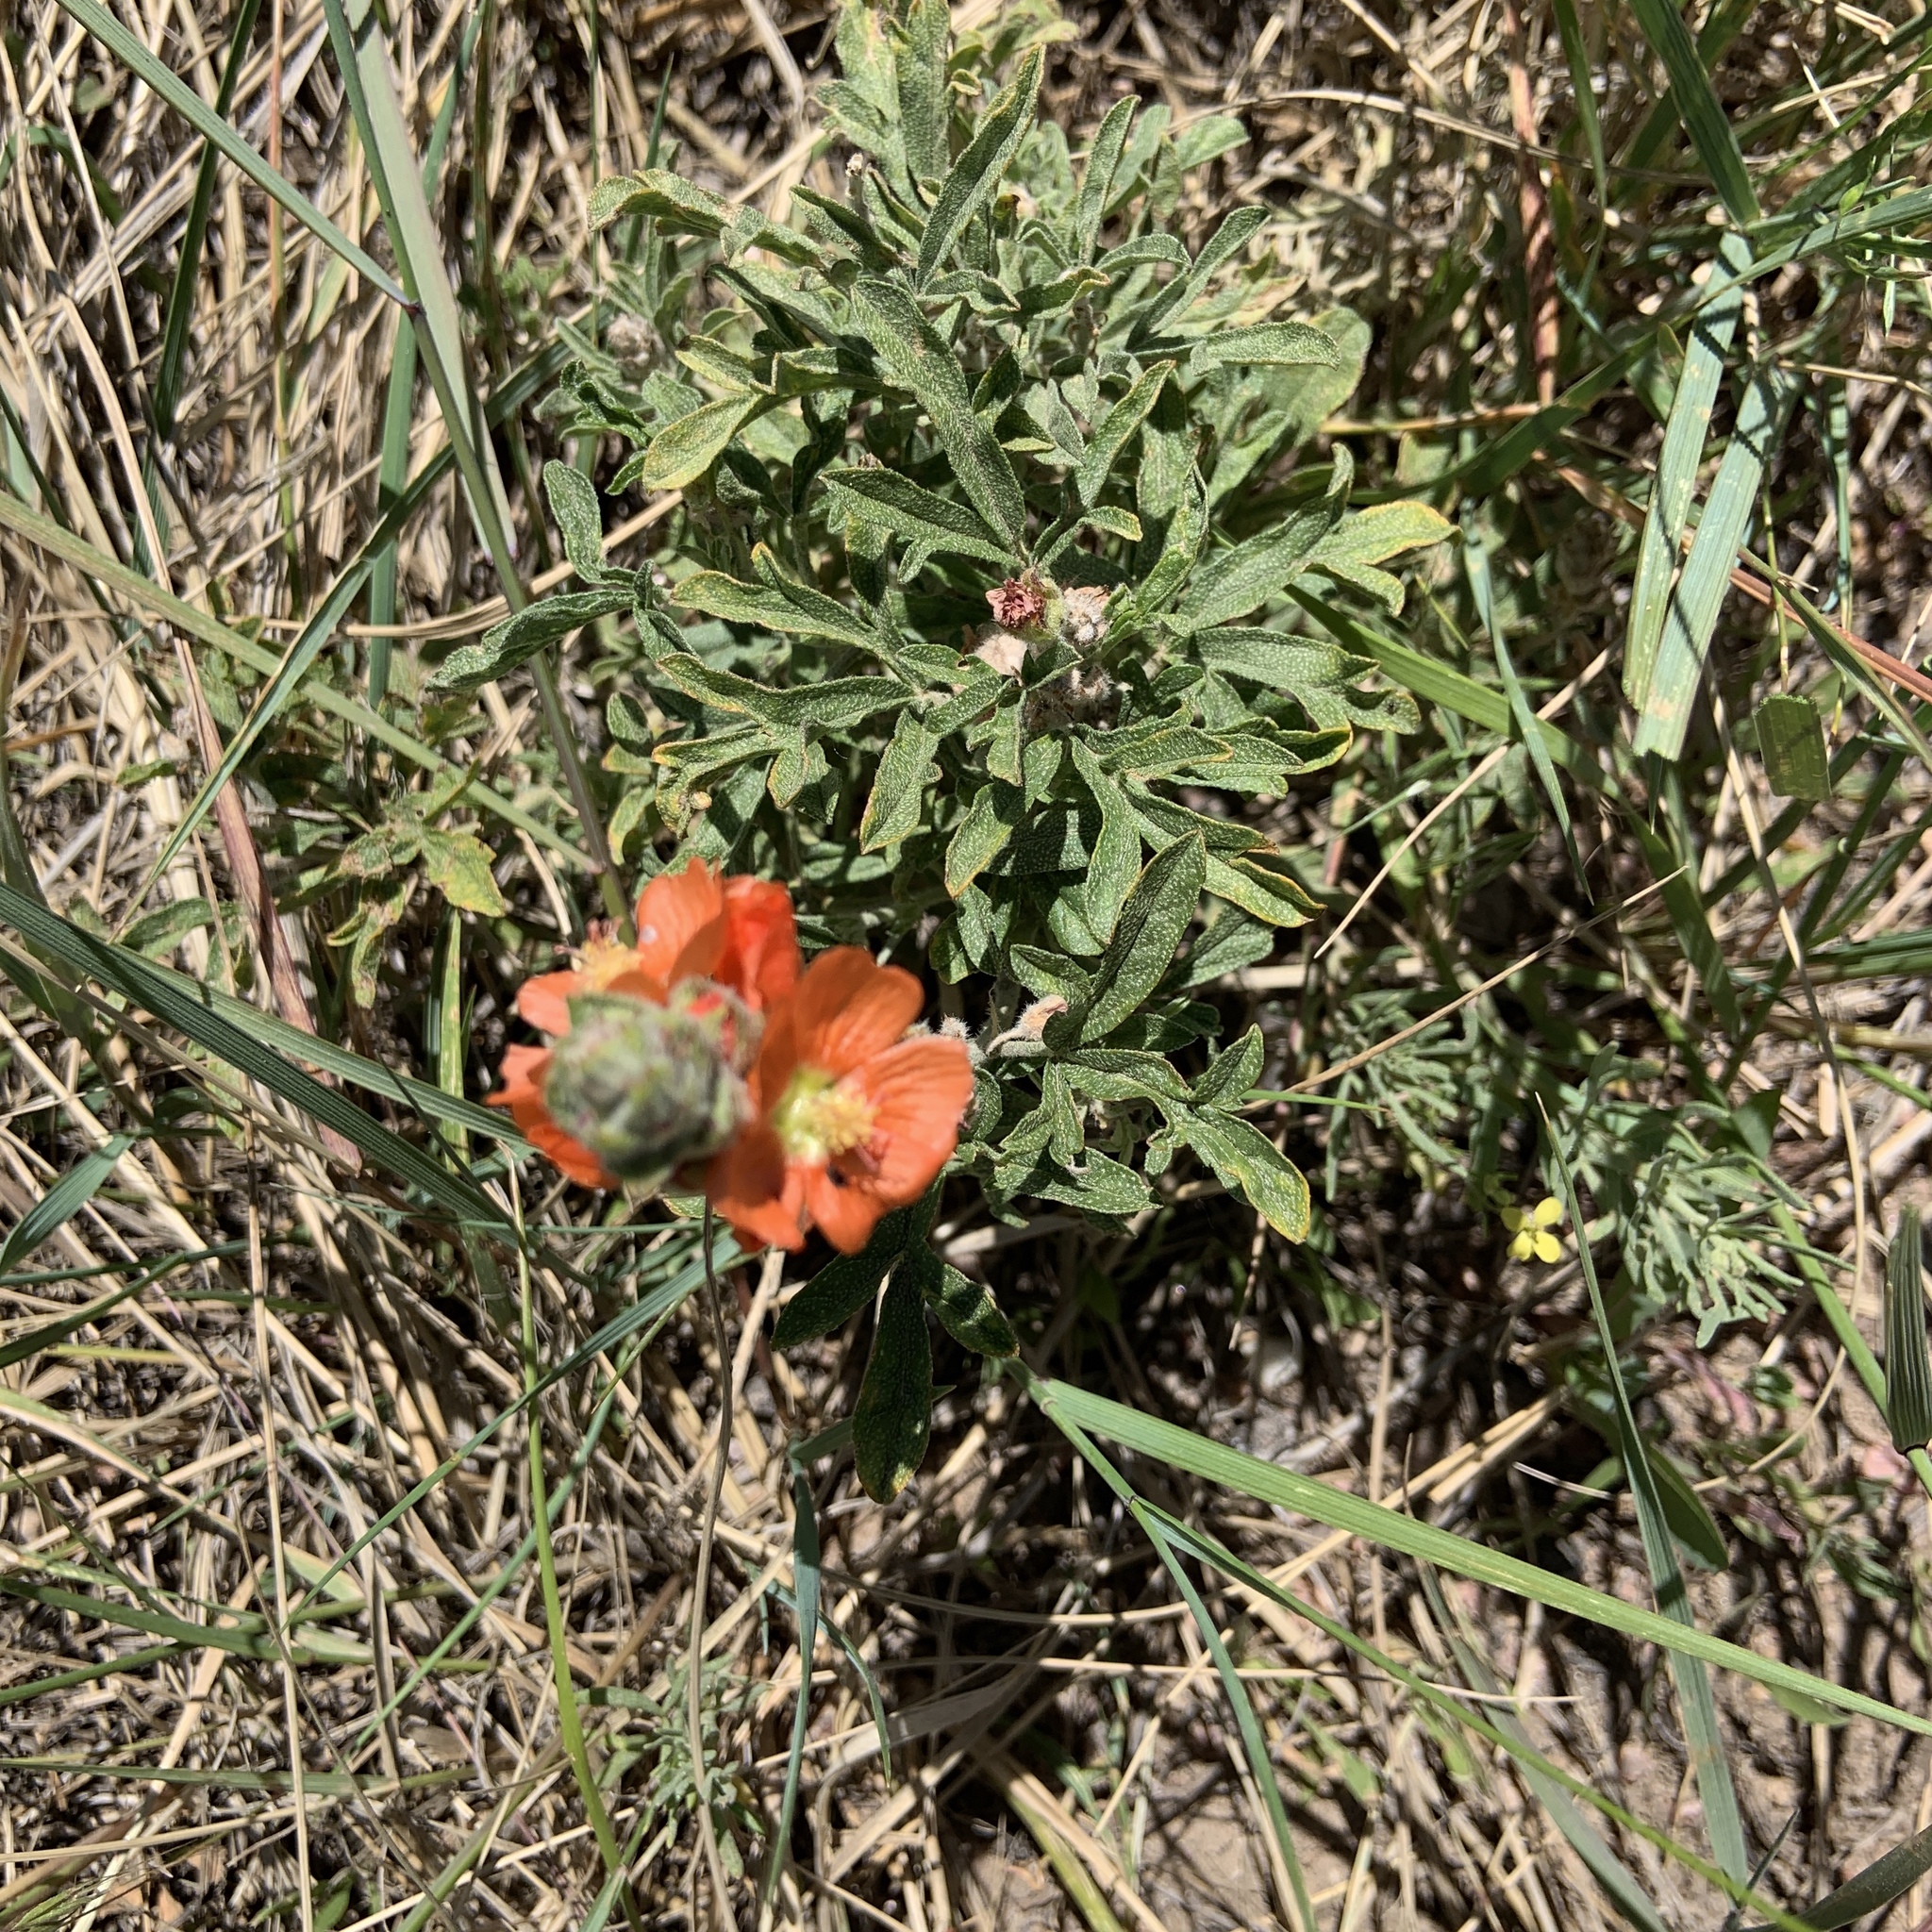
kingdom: Plantae
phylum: Tracheophyta
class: Magnoliopsida
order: Malvales
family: Malvaceae
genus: Sphaeralcea
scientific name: Sphaeralcea coccinea
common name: Moss-rose
